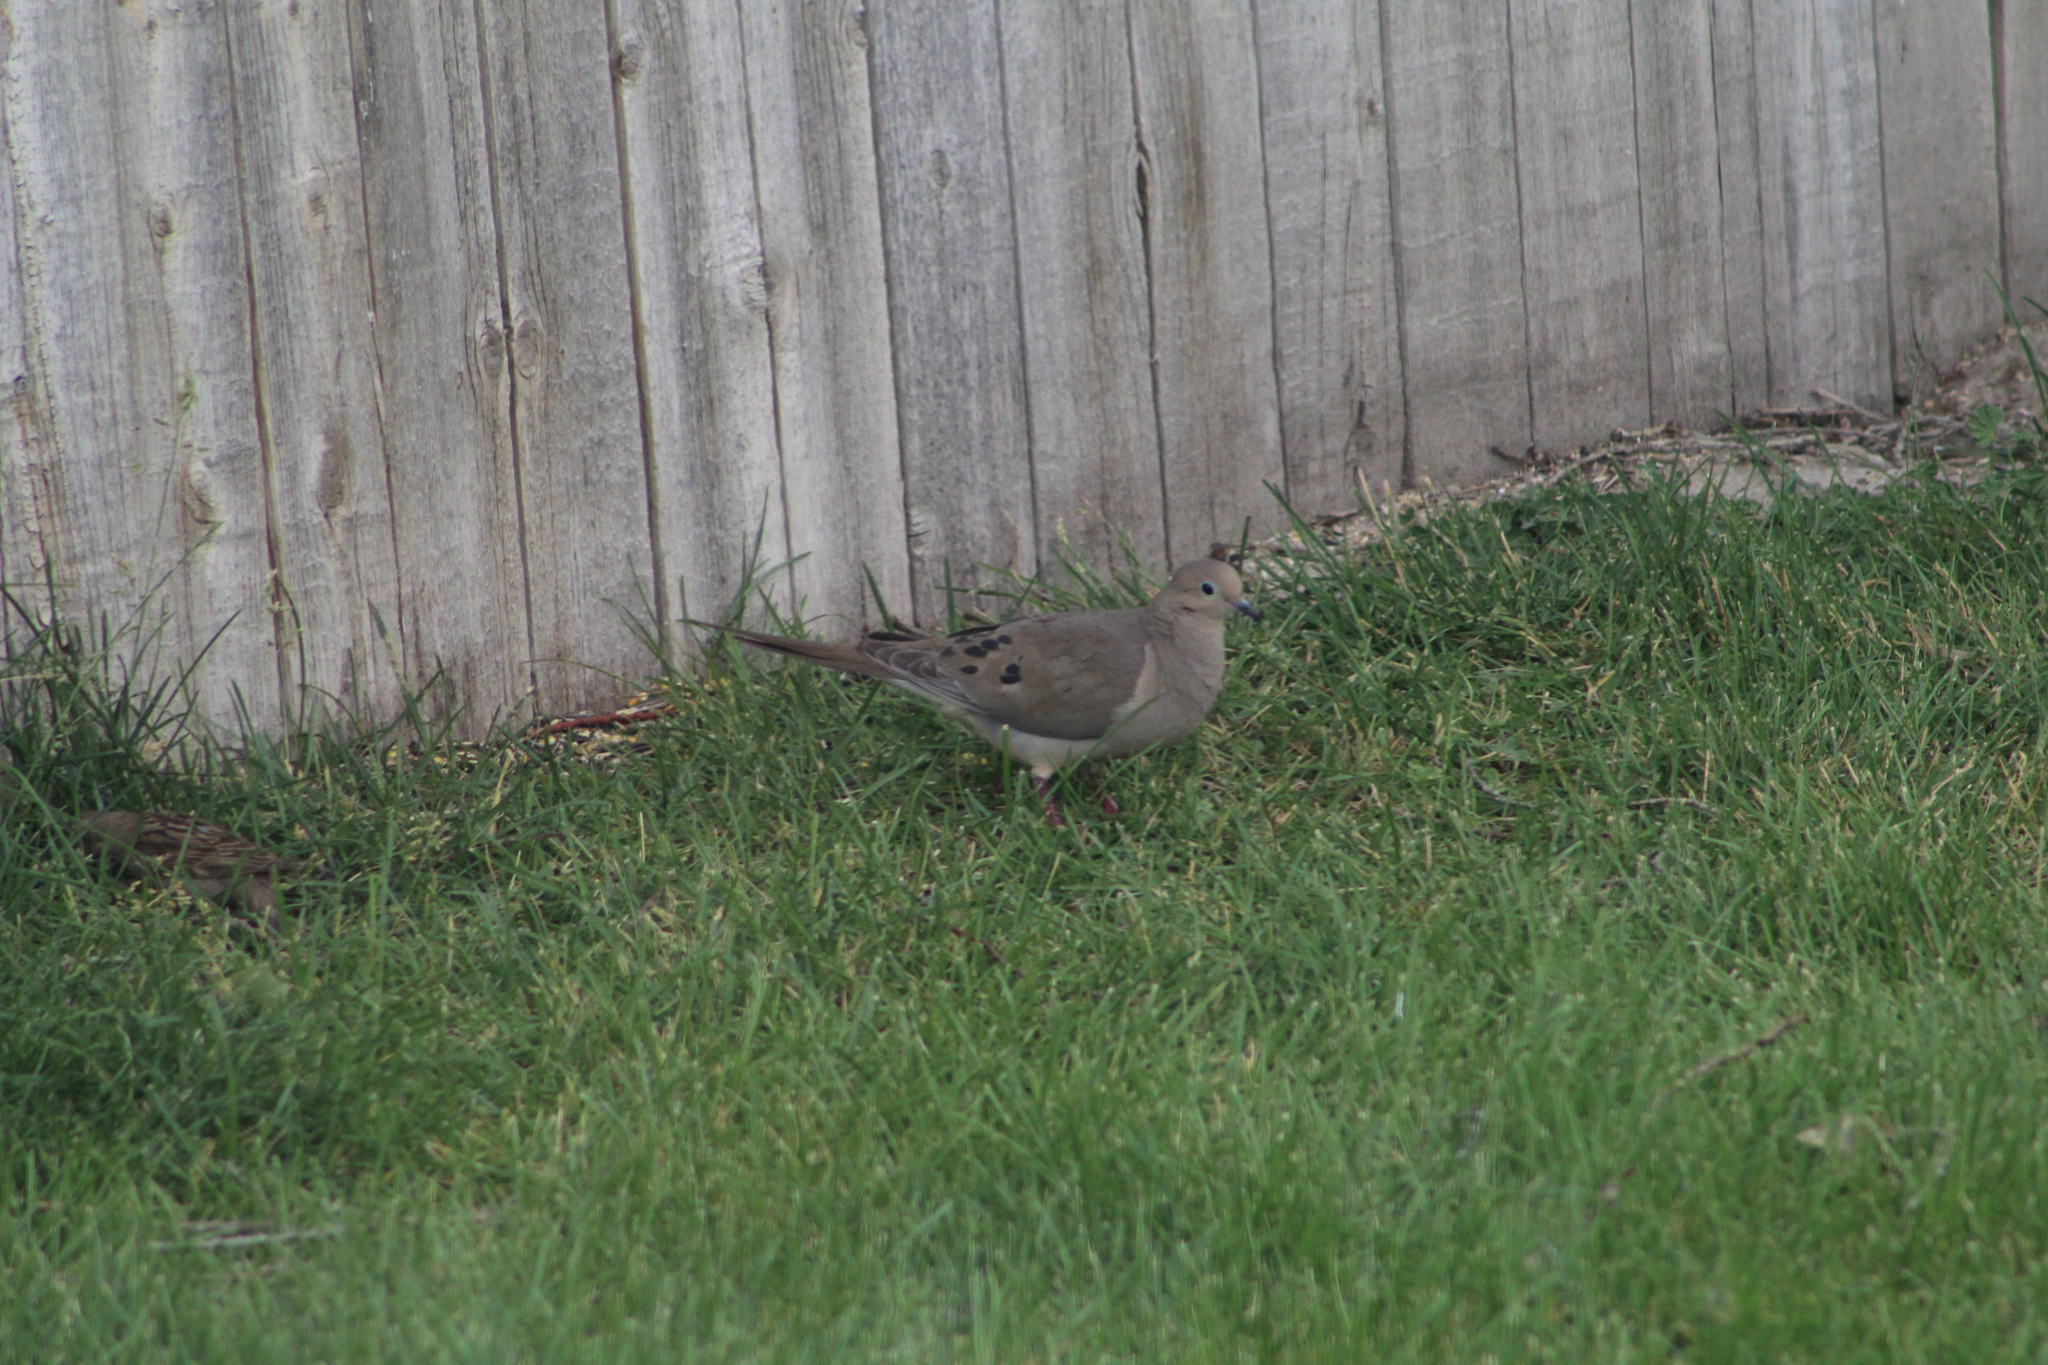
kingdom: Animalia
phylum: Chordata
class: Aves
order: Columbiformes
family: Columbidae
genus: Zenaida
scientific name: Zenaida macroura
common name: Mourning dove
